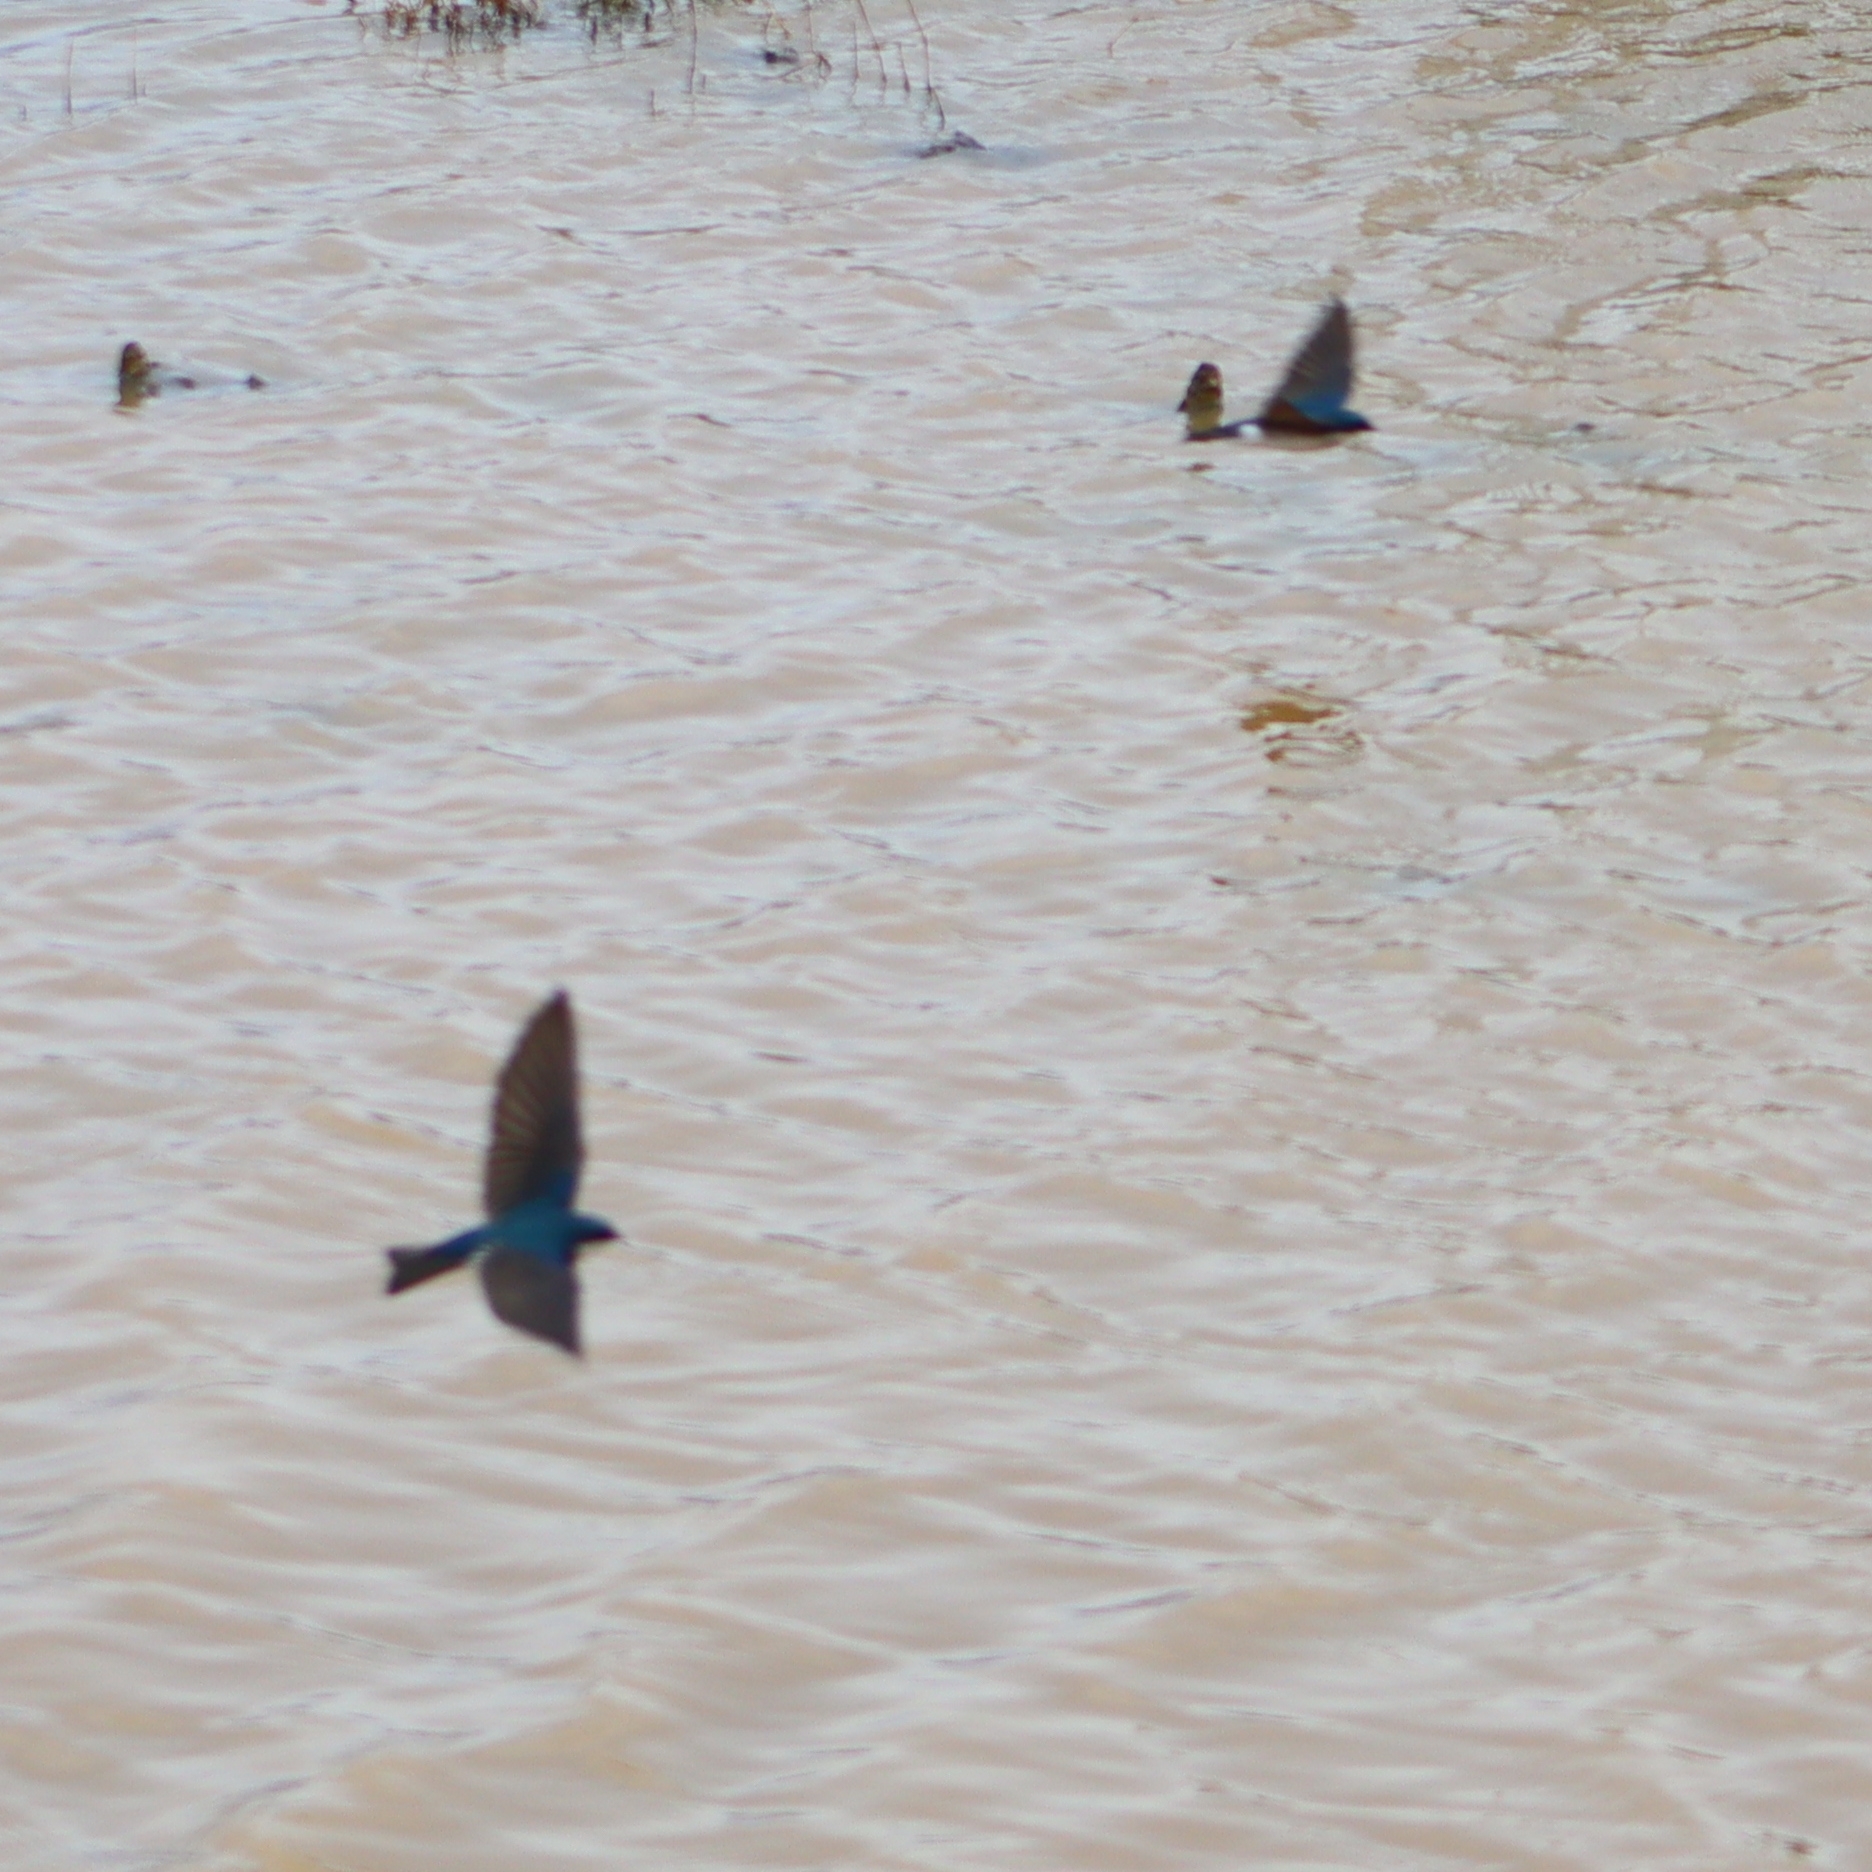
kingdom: Animalia
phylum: Chordata
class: Aves
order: Passeriformes
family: Hirundinidae
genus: Tachycineta
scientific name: Tachycineta bicolor
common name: Tree swallow
